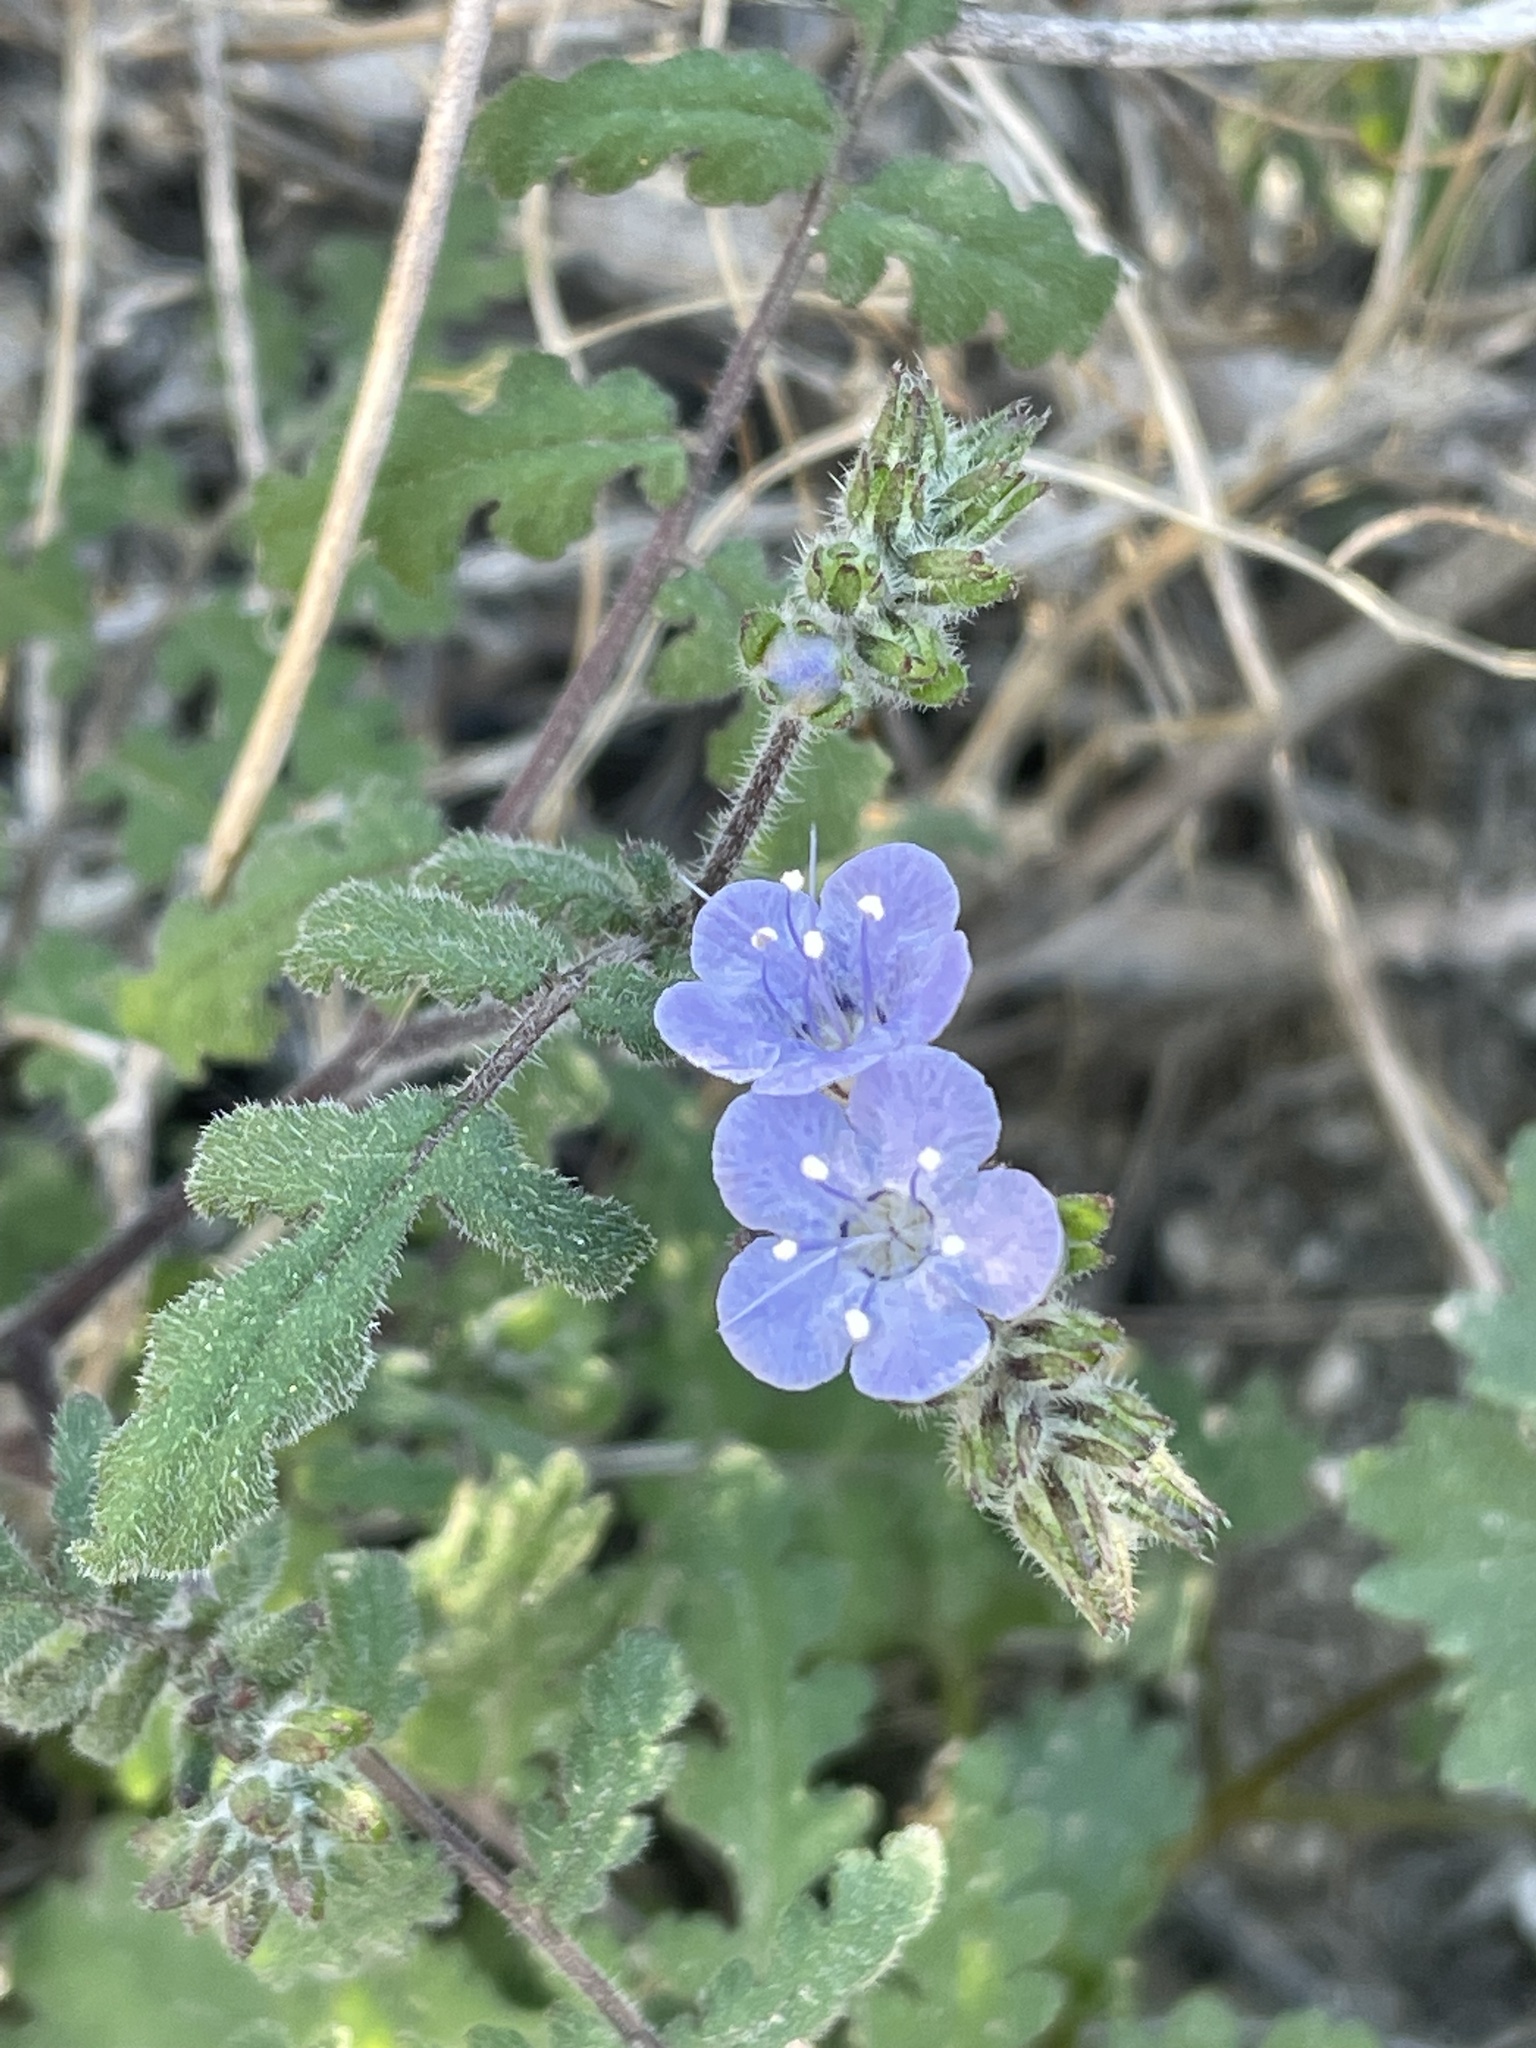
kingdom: Plantae
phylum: Tracheophyta
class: Magnoliopsida
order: Boraginales
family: Hydrophyllaceae
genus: Phacelia
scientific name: Phacelia distans
